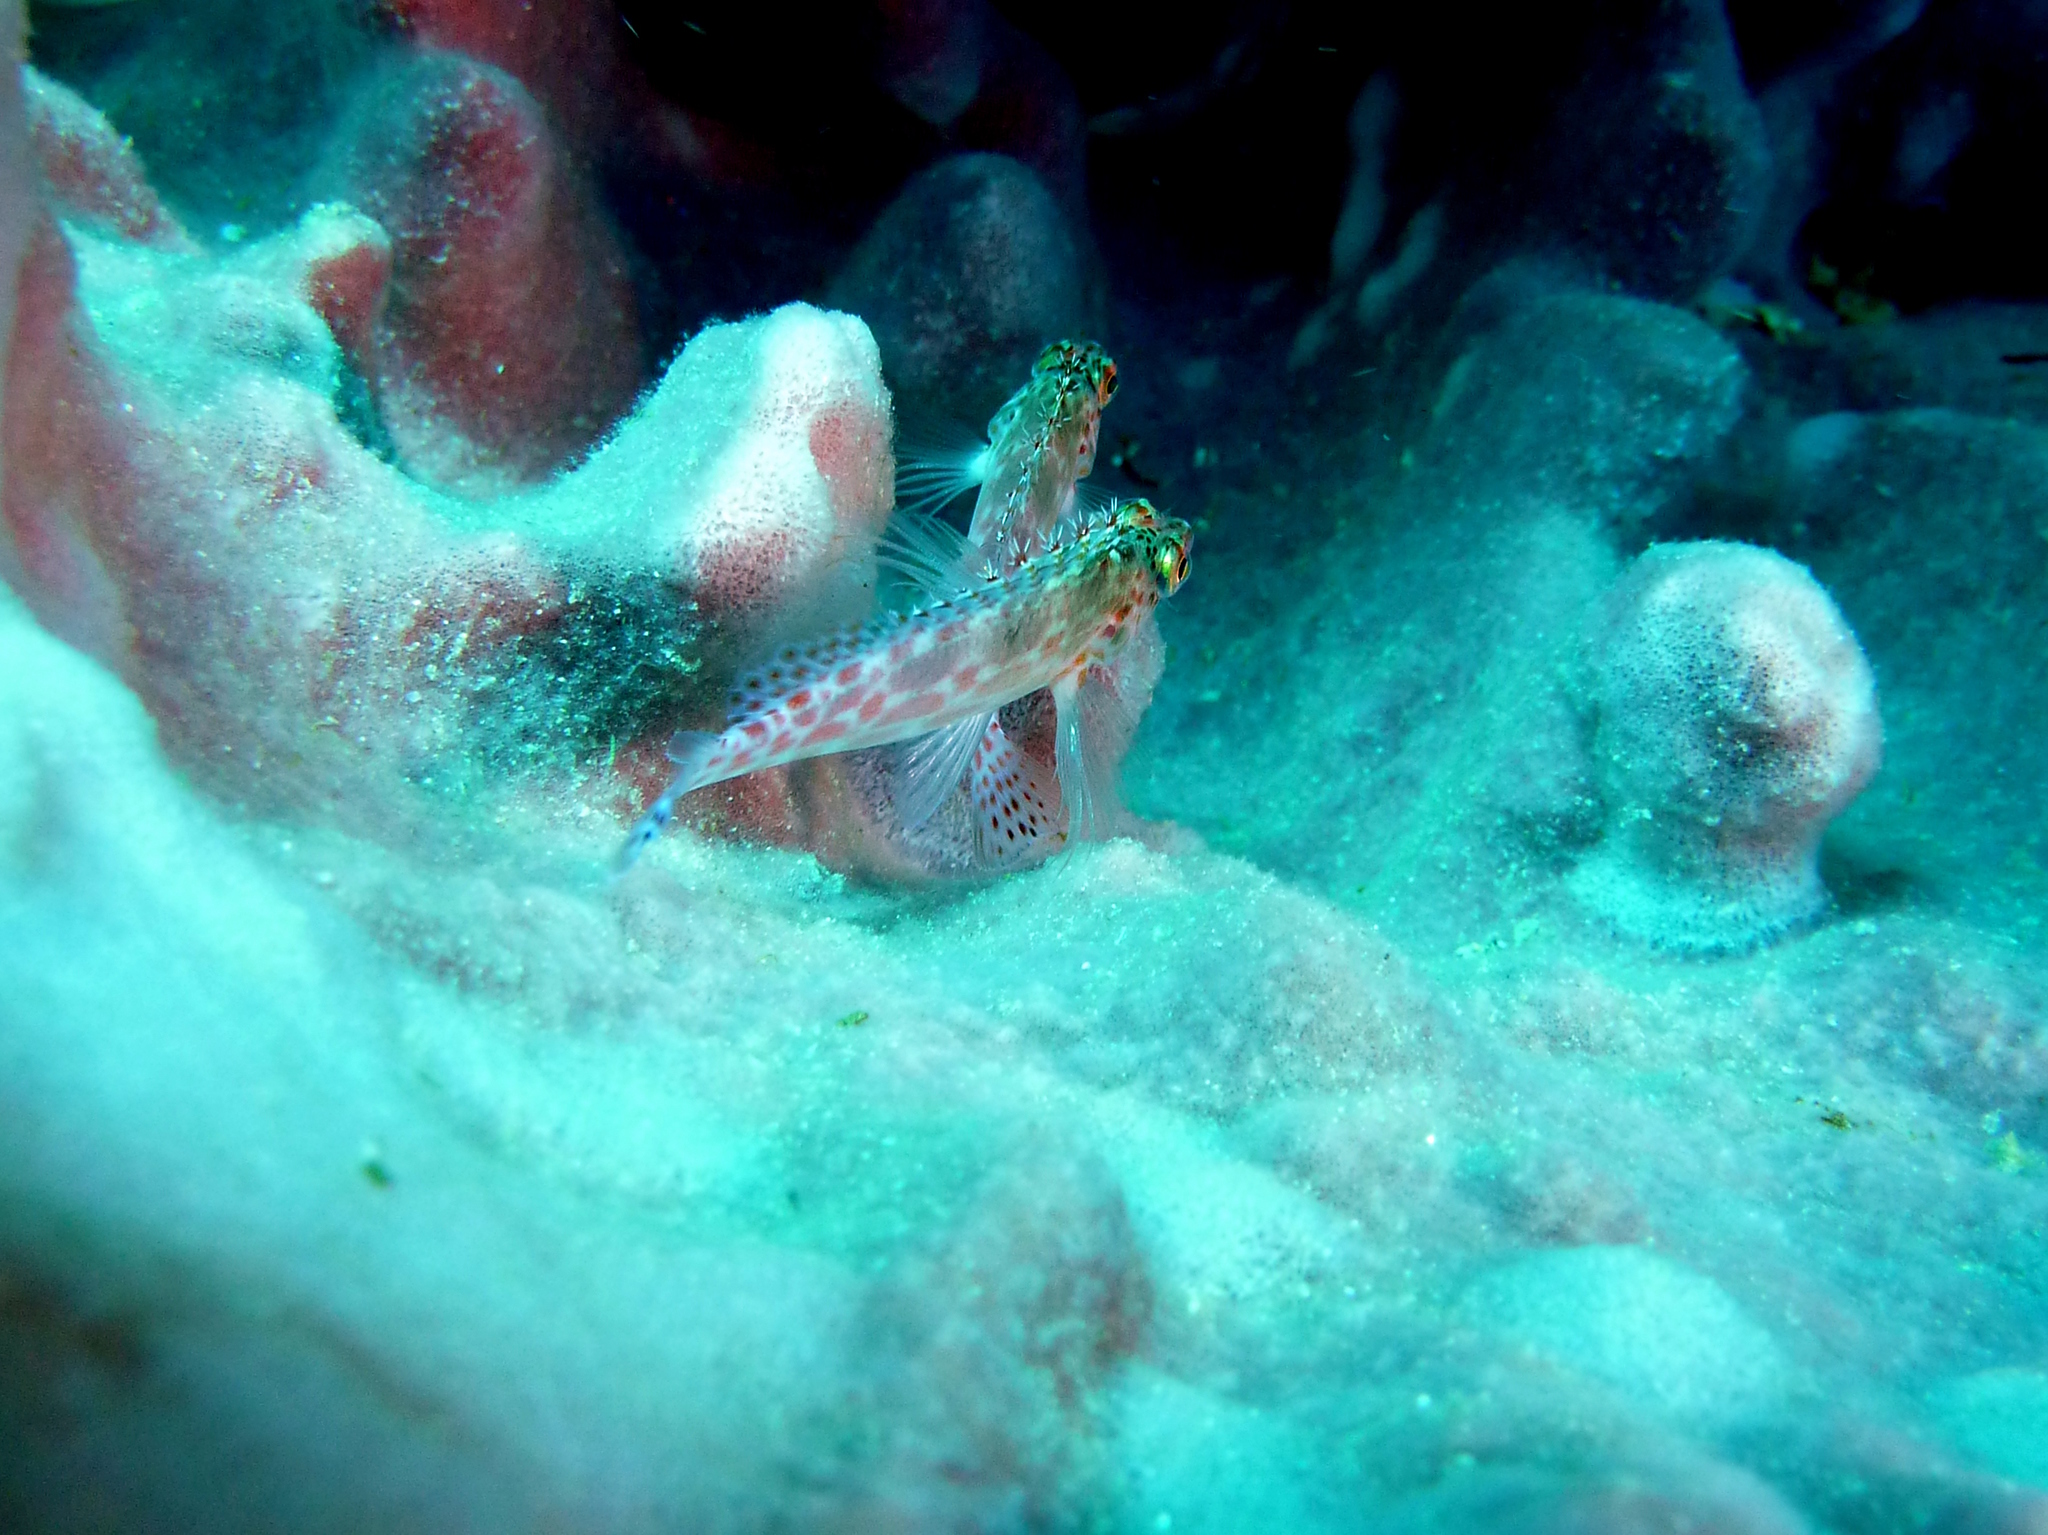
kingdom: Animalia
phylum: Chordata
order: Perciformes
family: Cirrhitidae
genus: Cirrhitichthys
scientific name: Cirrhitichthys oxycephalus
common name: Spotted hawkfish
